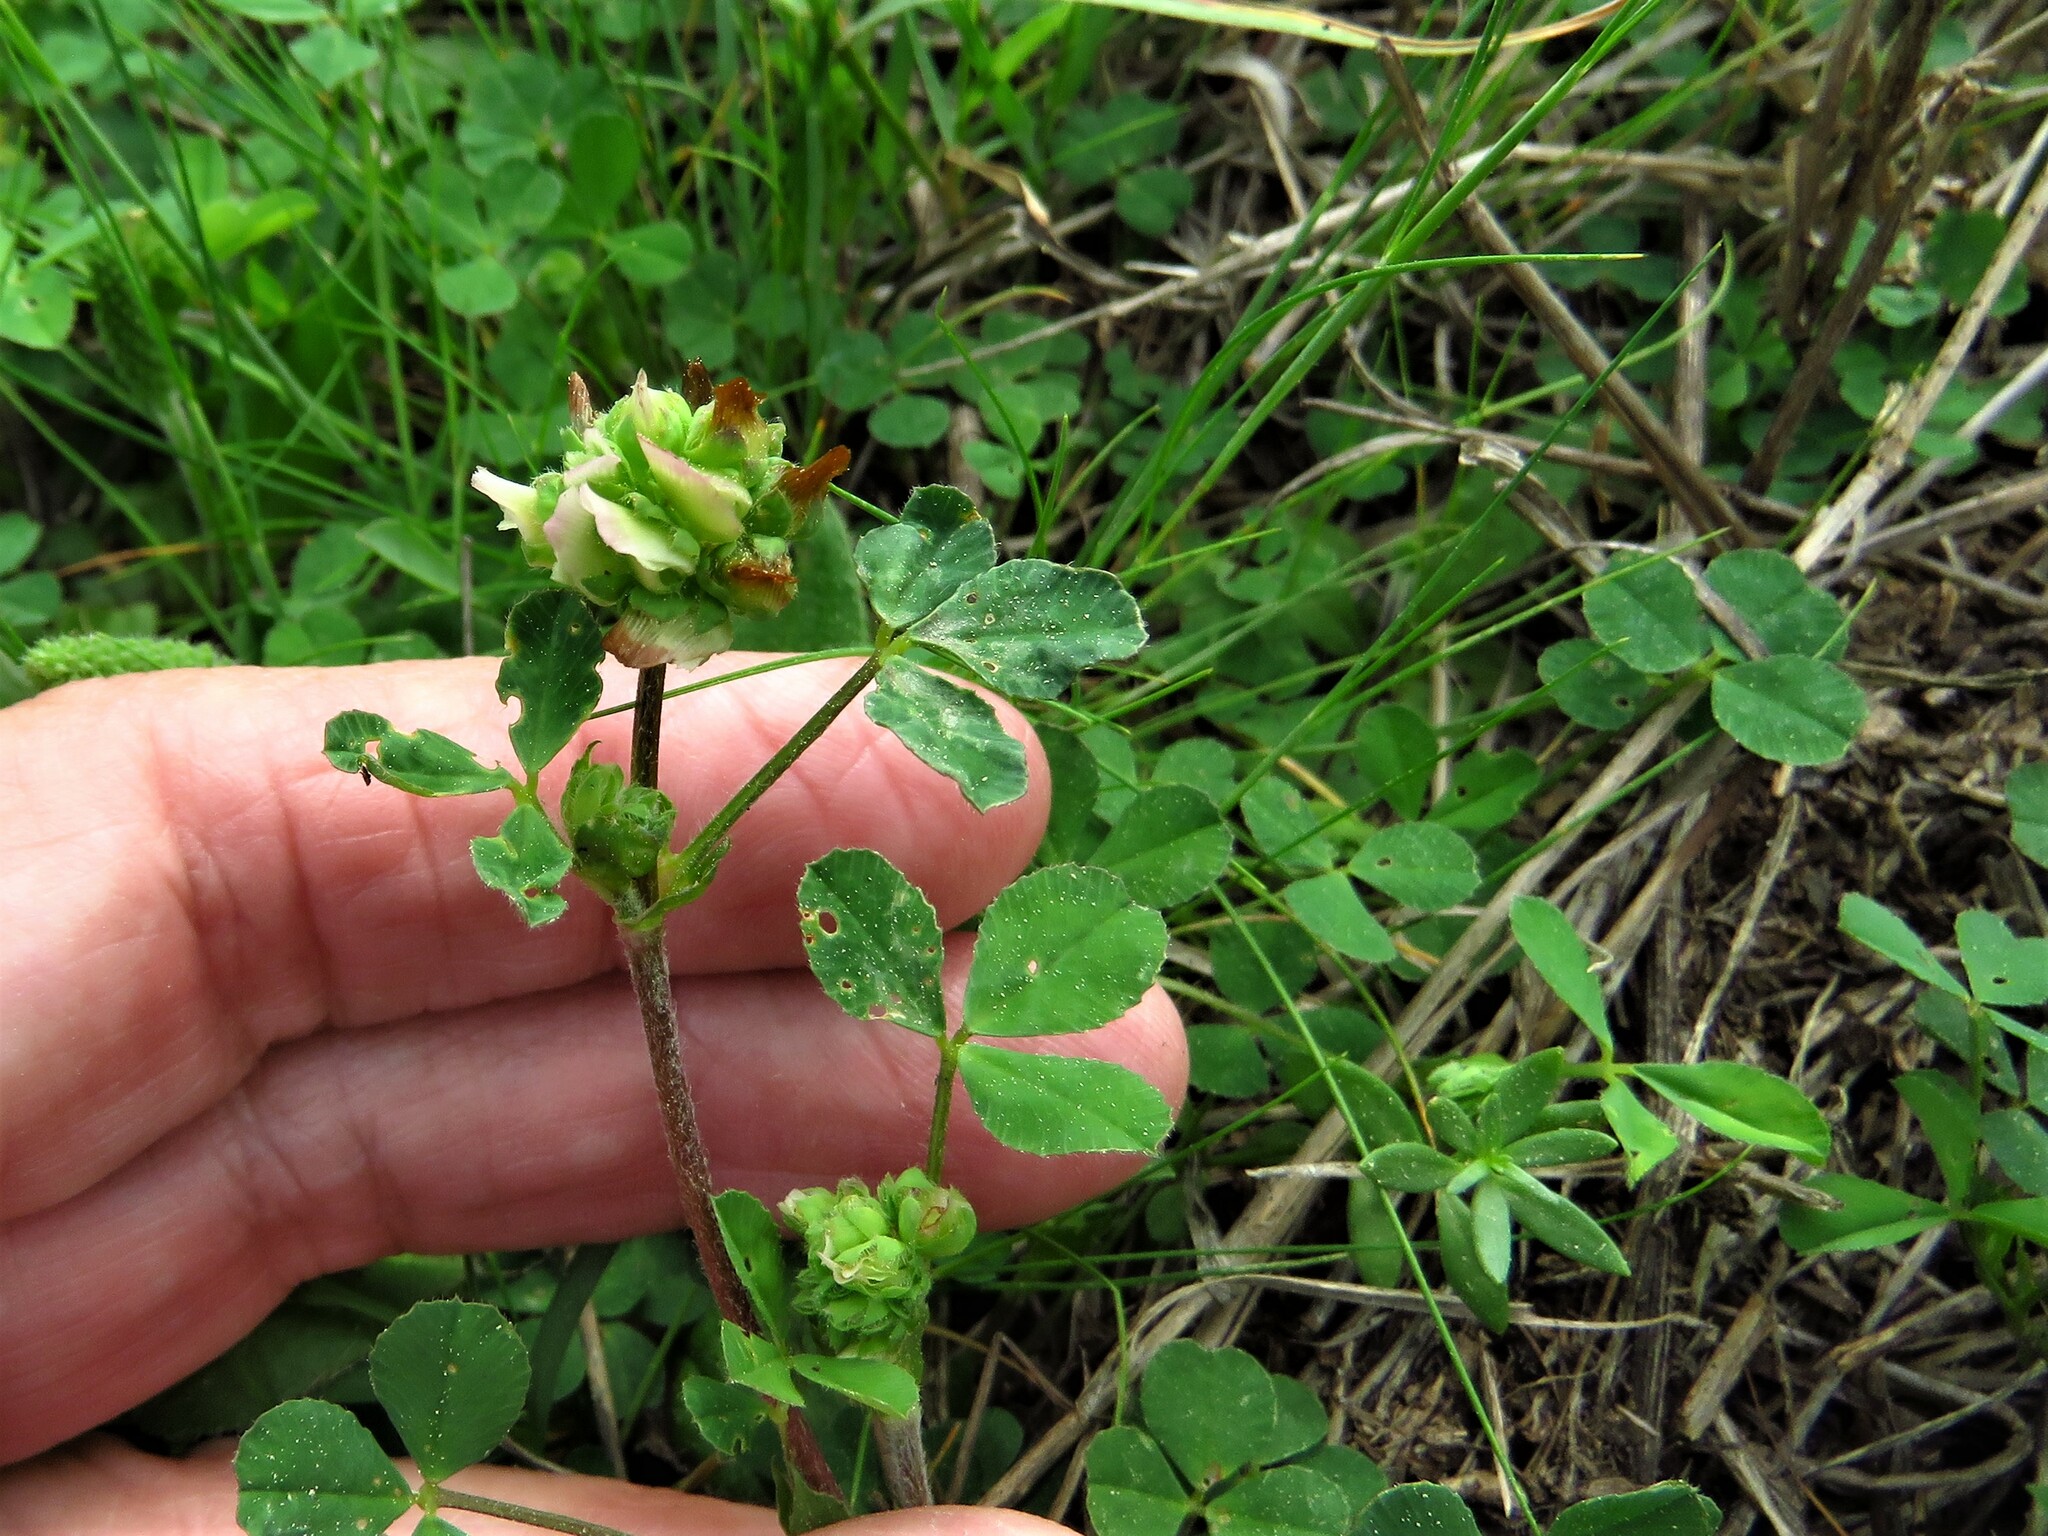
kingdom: Plantae
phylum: Tracheophyta
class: Magnoliopsida
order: Fabales
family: Fabaceae
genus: Trifolium
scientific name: Trifolium bejariense
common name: Bejar clover
